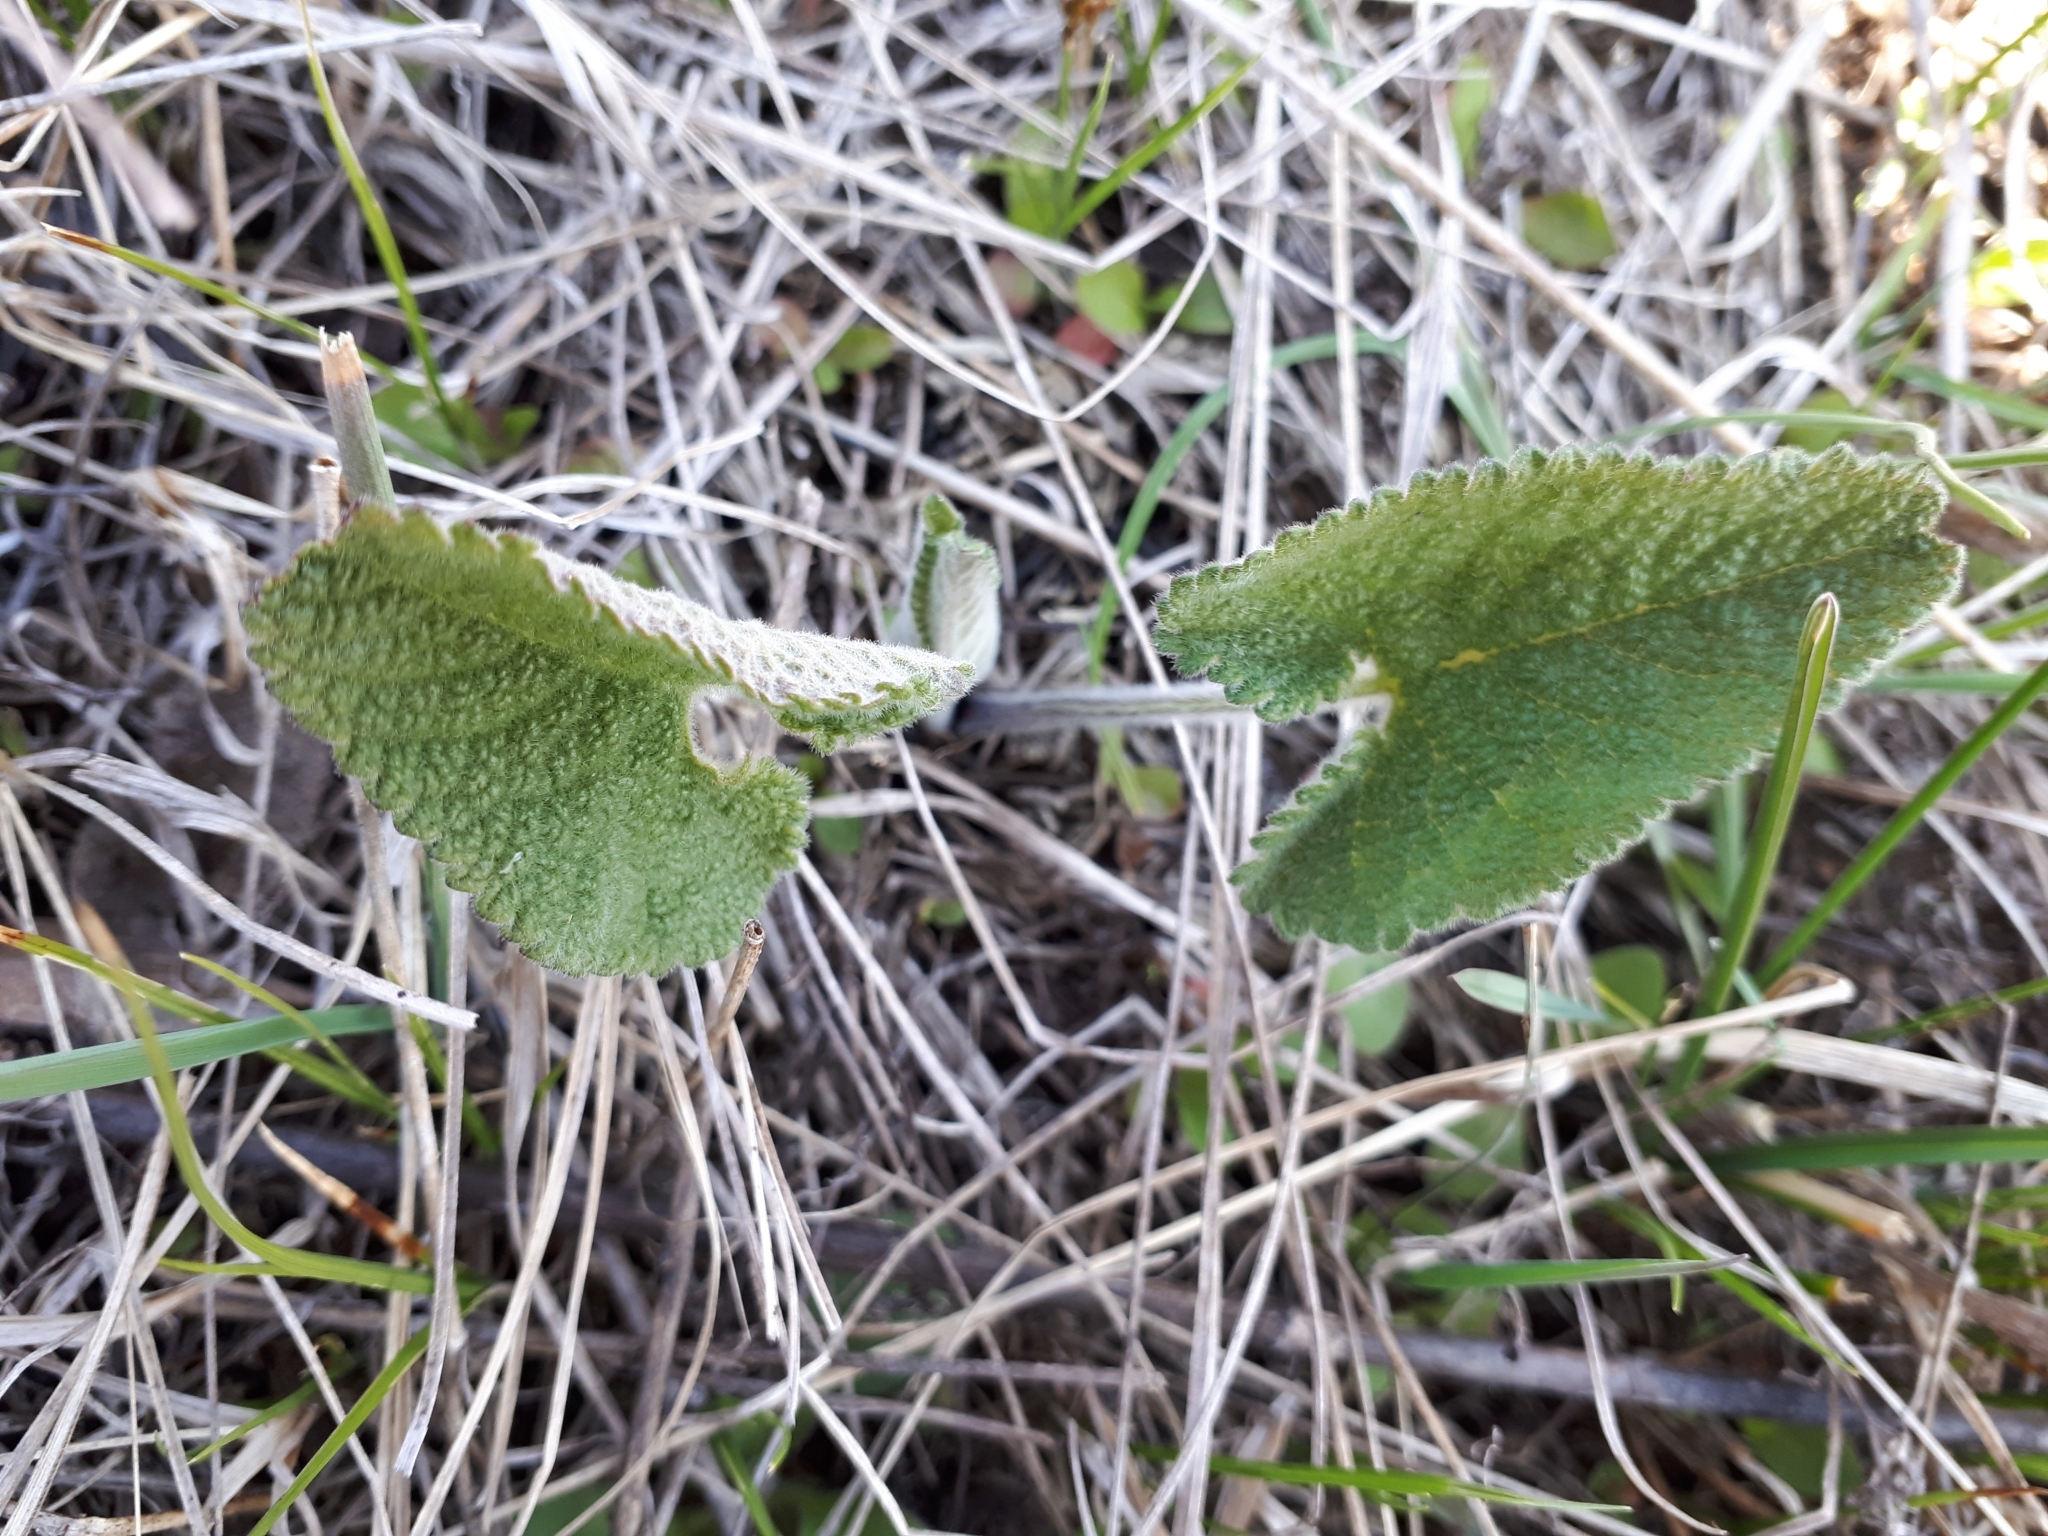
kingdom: Plantae
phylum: Tracheophyta
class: Magnoliopsida
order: Lamiales
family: Lamiaceae
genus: Phlomoides
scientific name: Phlomoides tuberosa
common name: Tuberous jerusalem sage
